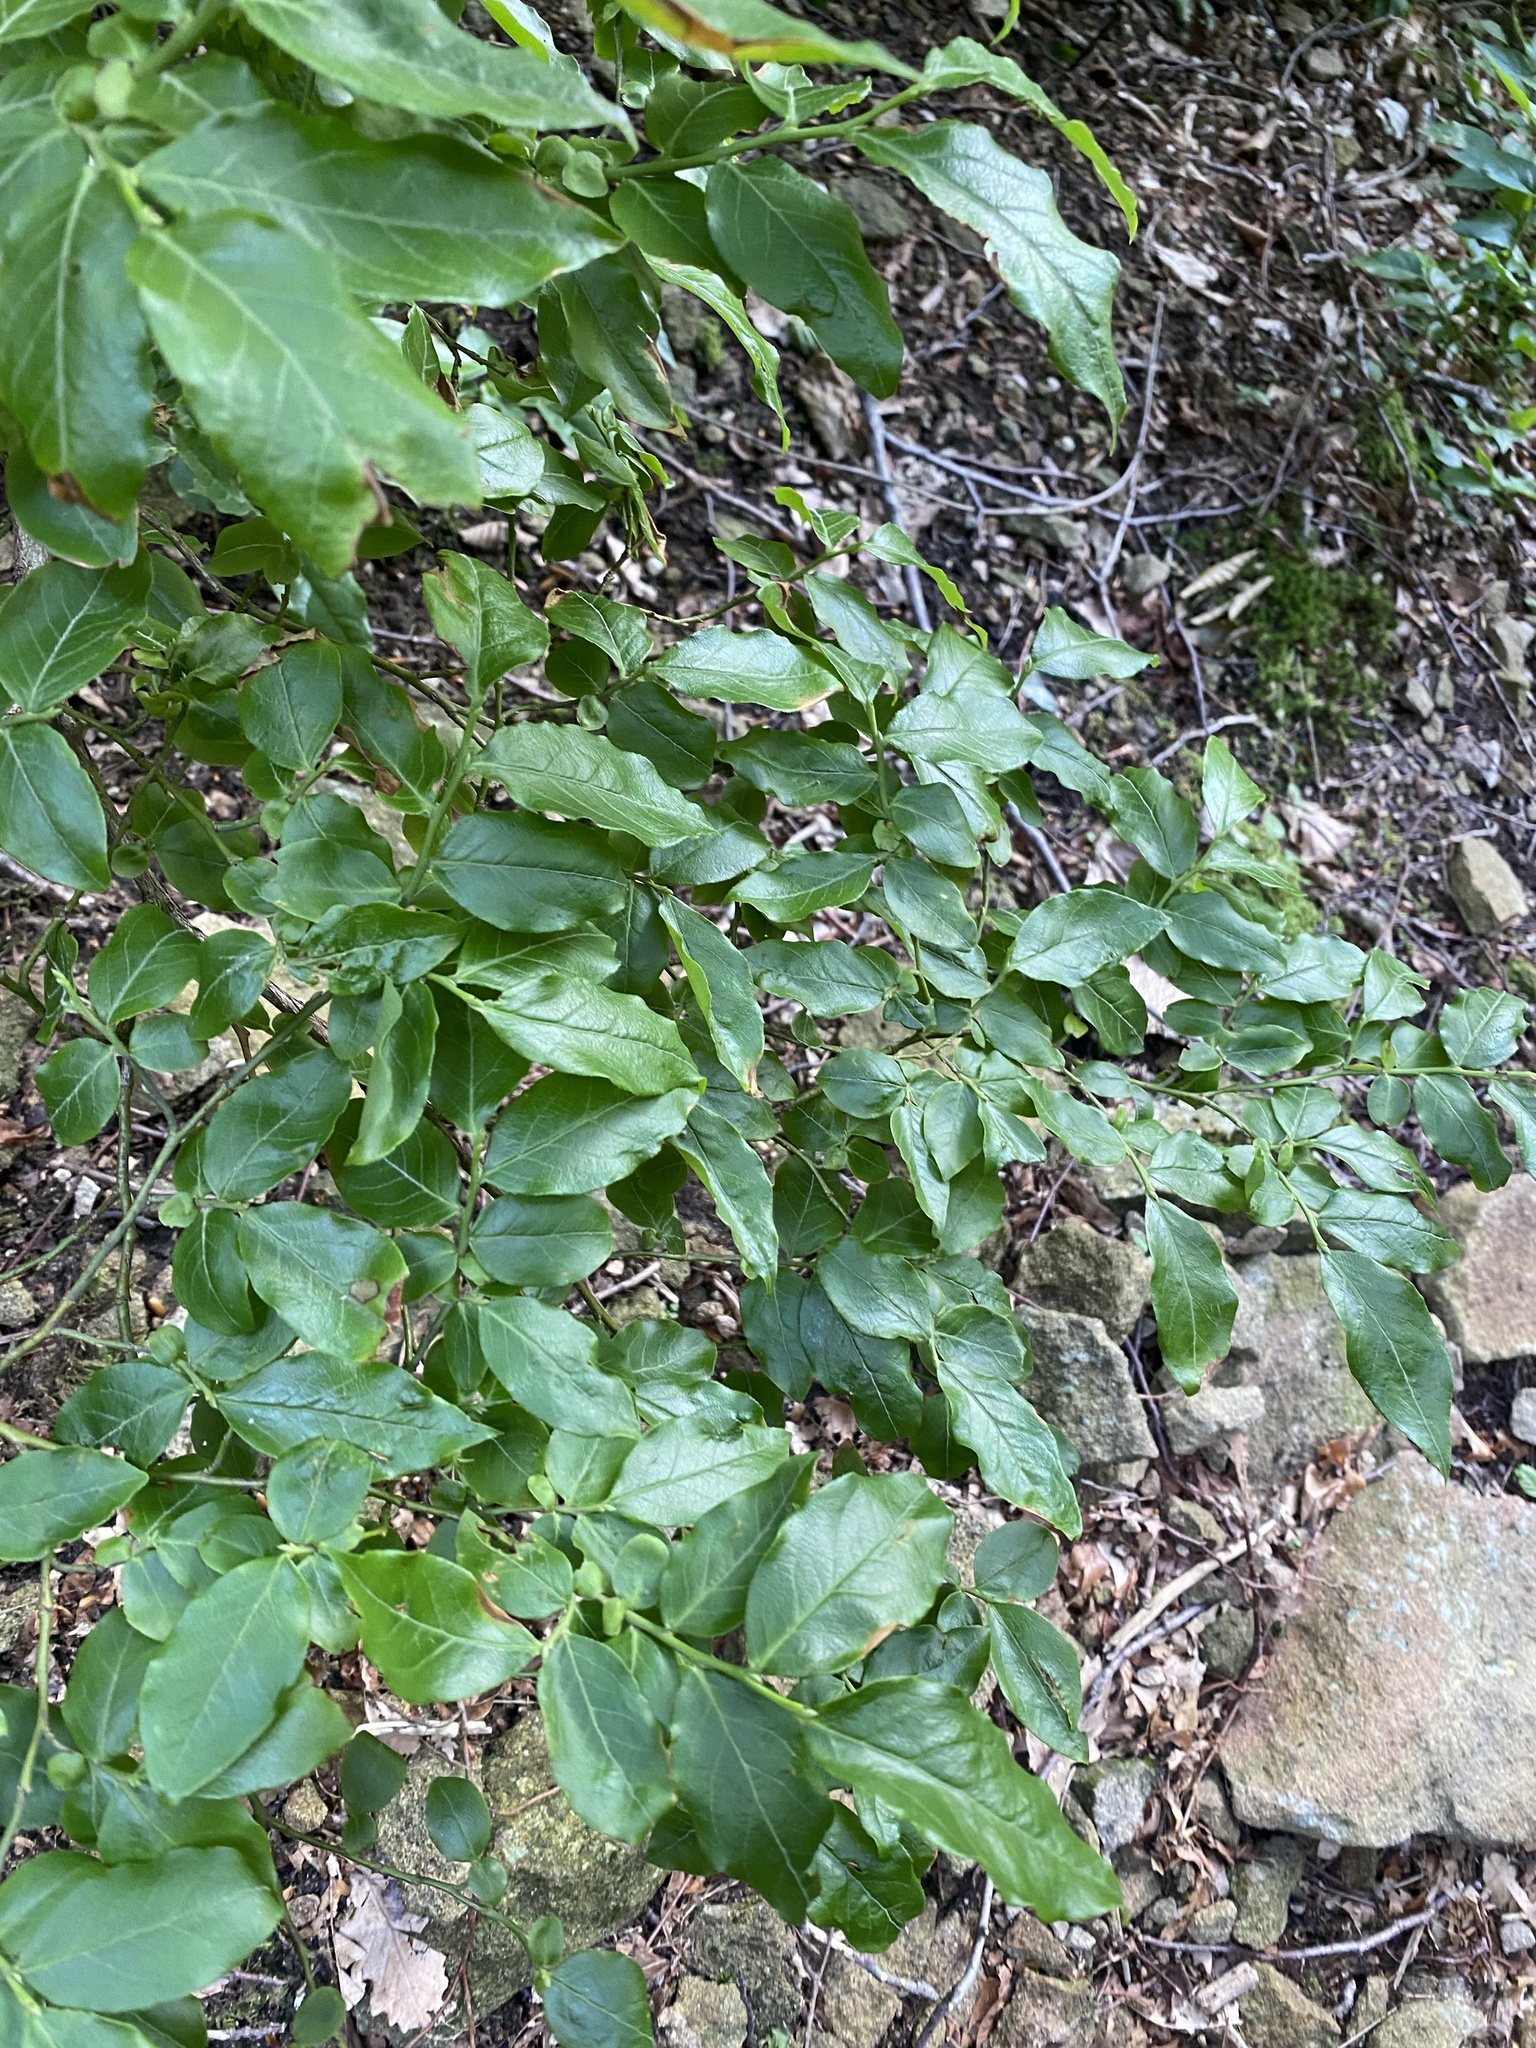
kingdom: Plantae
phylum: Tracheophyta
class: Magnoliopsida
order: Ericales
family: Ericaceae
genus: Vaccinium
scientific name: Vaccinium arctostaphylos
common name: Caucasian whortleberry
